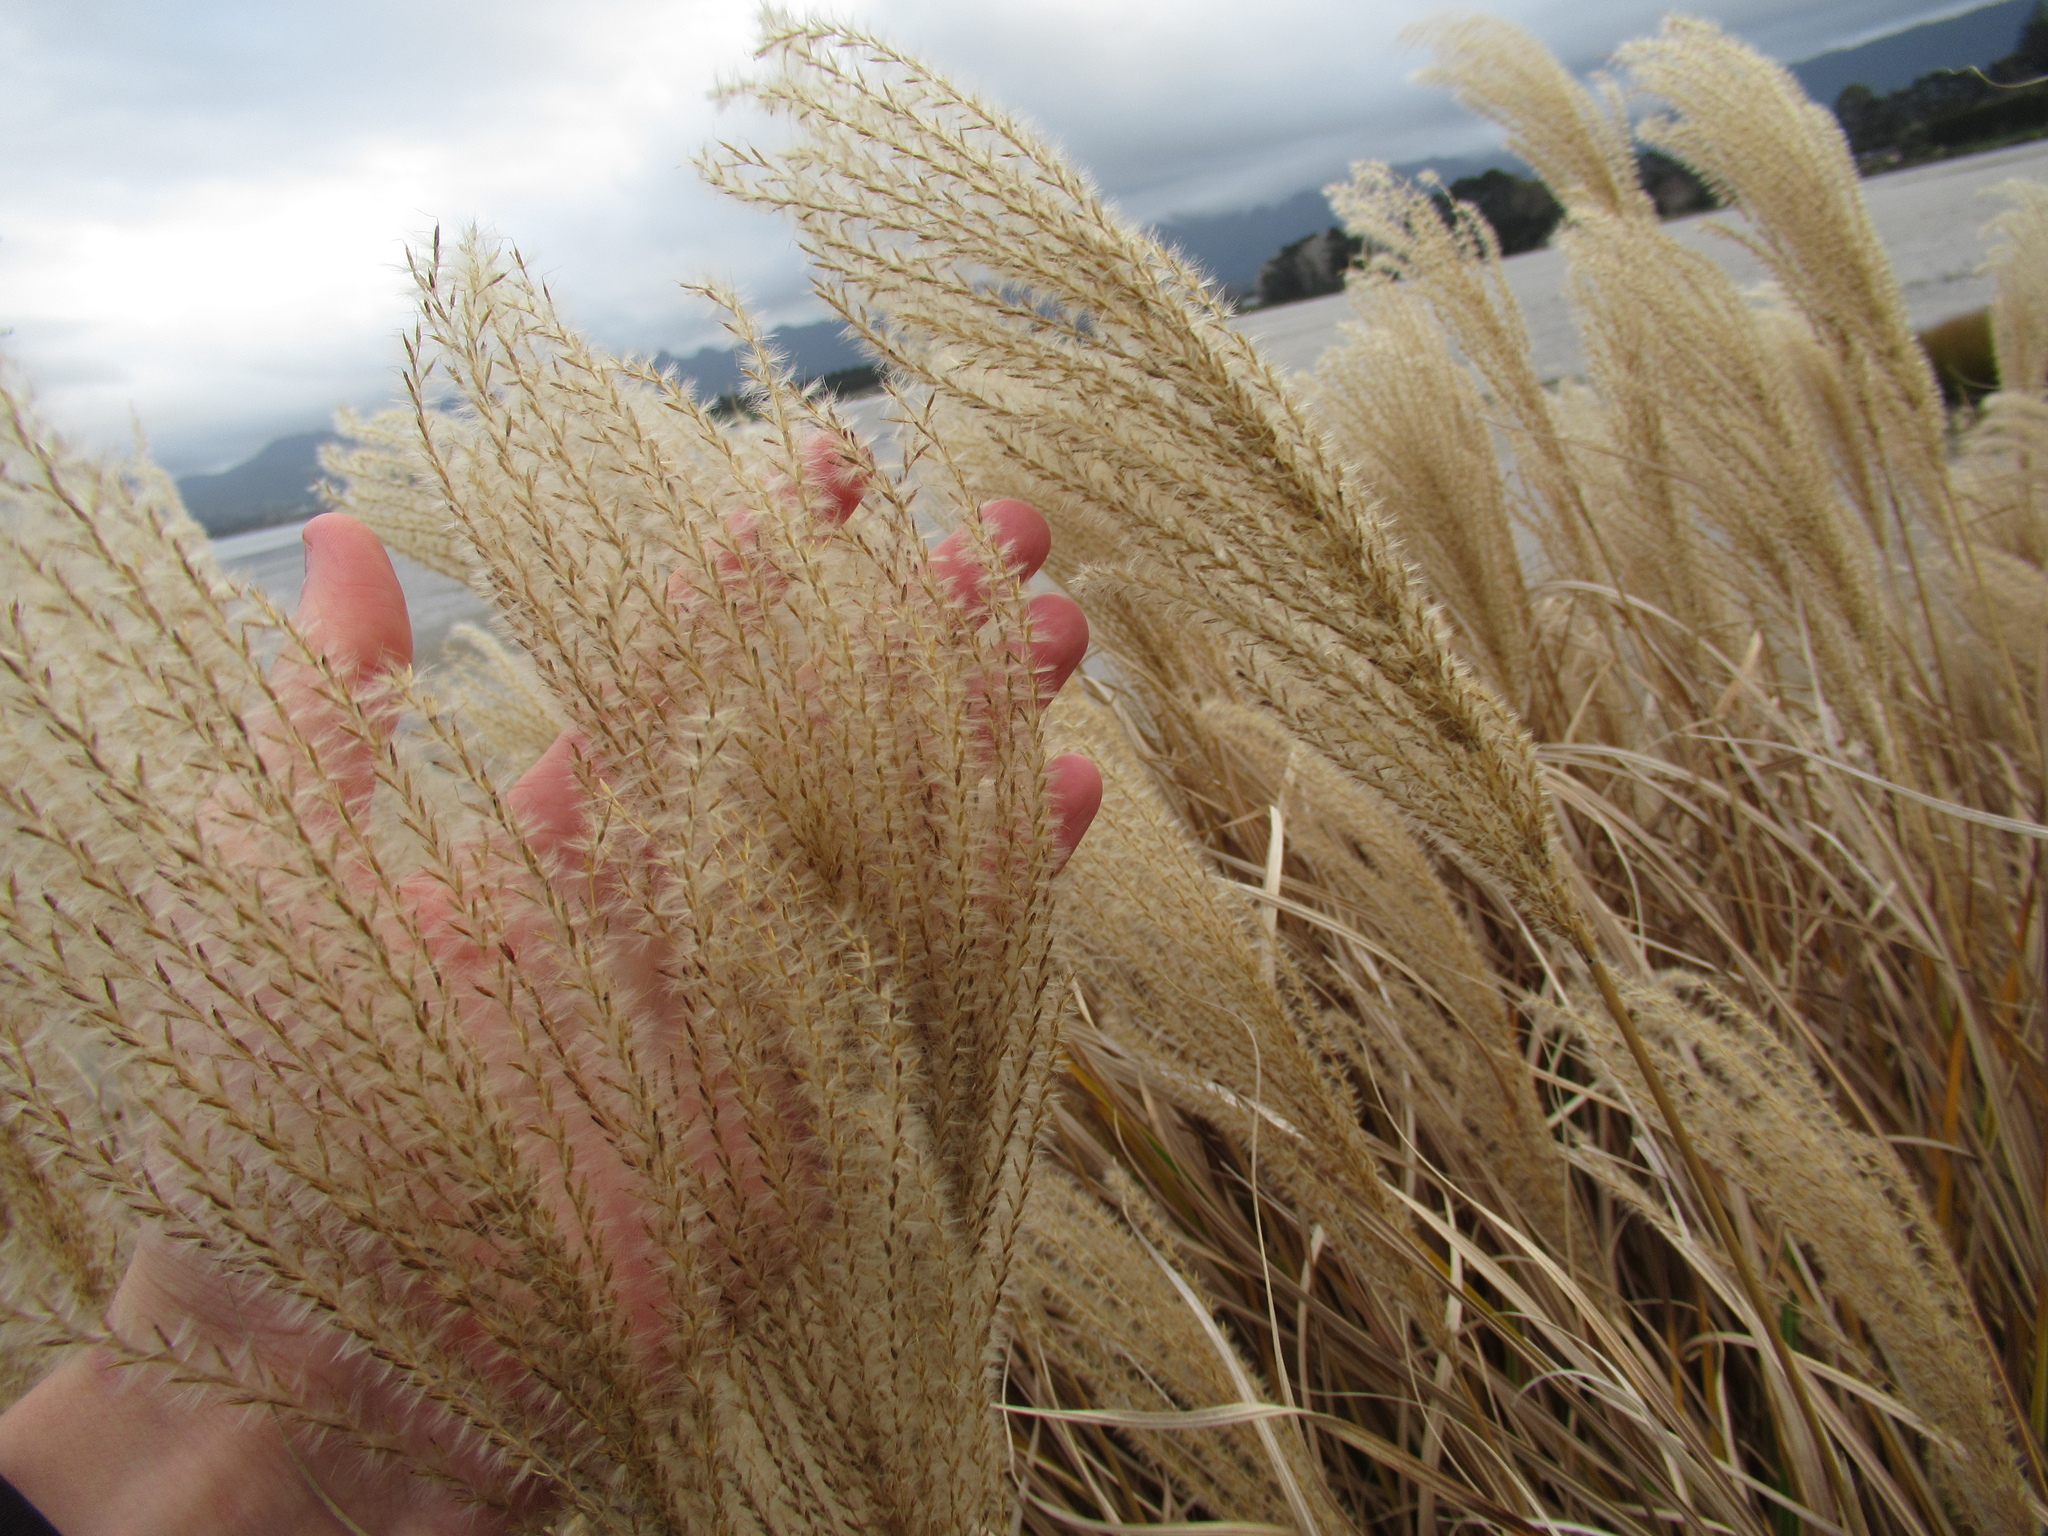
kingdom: Plantae
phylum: Tracheophyta
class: Liliopsida
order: Poales
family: Poaceae
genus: Miscanthus
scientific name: Miscanthus sinensis
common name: Chinese silvergrass
